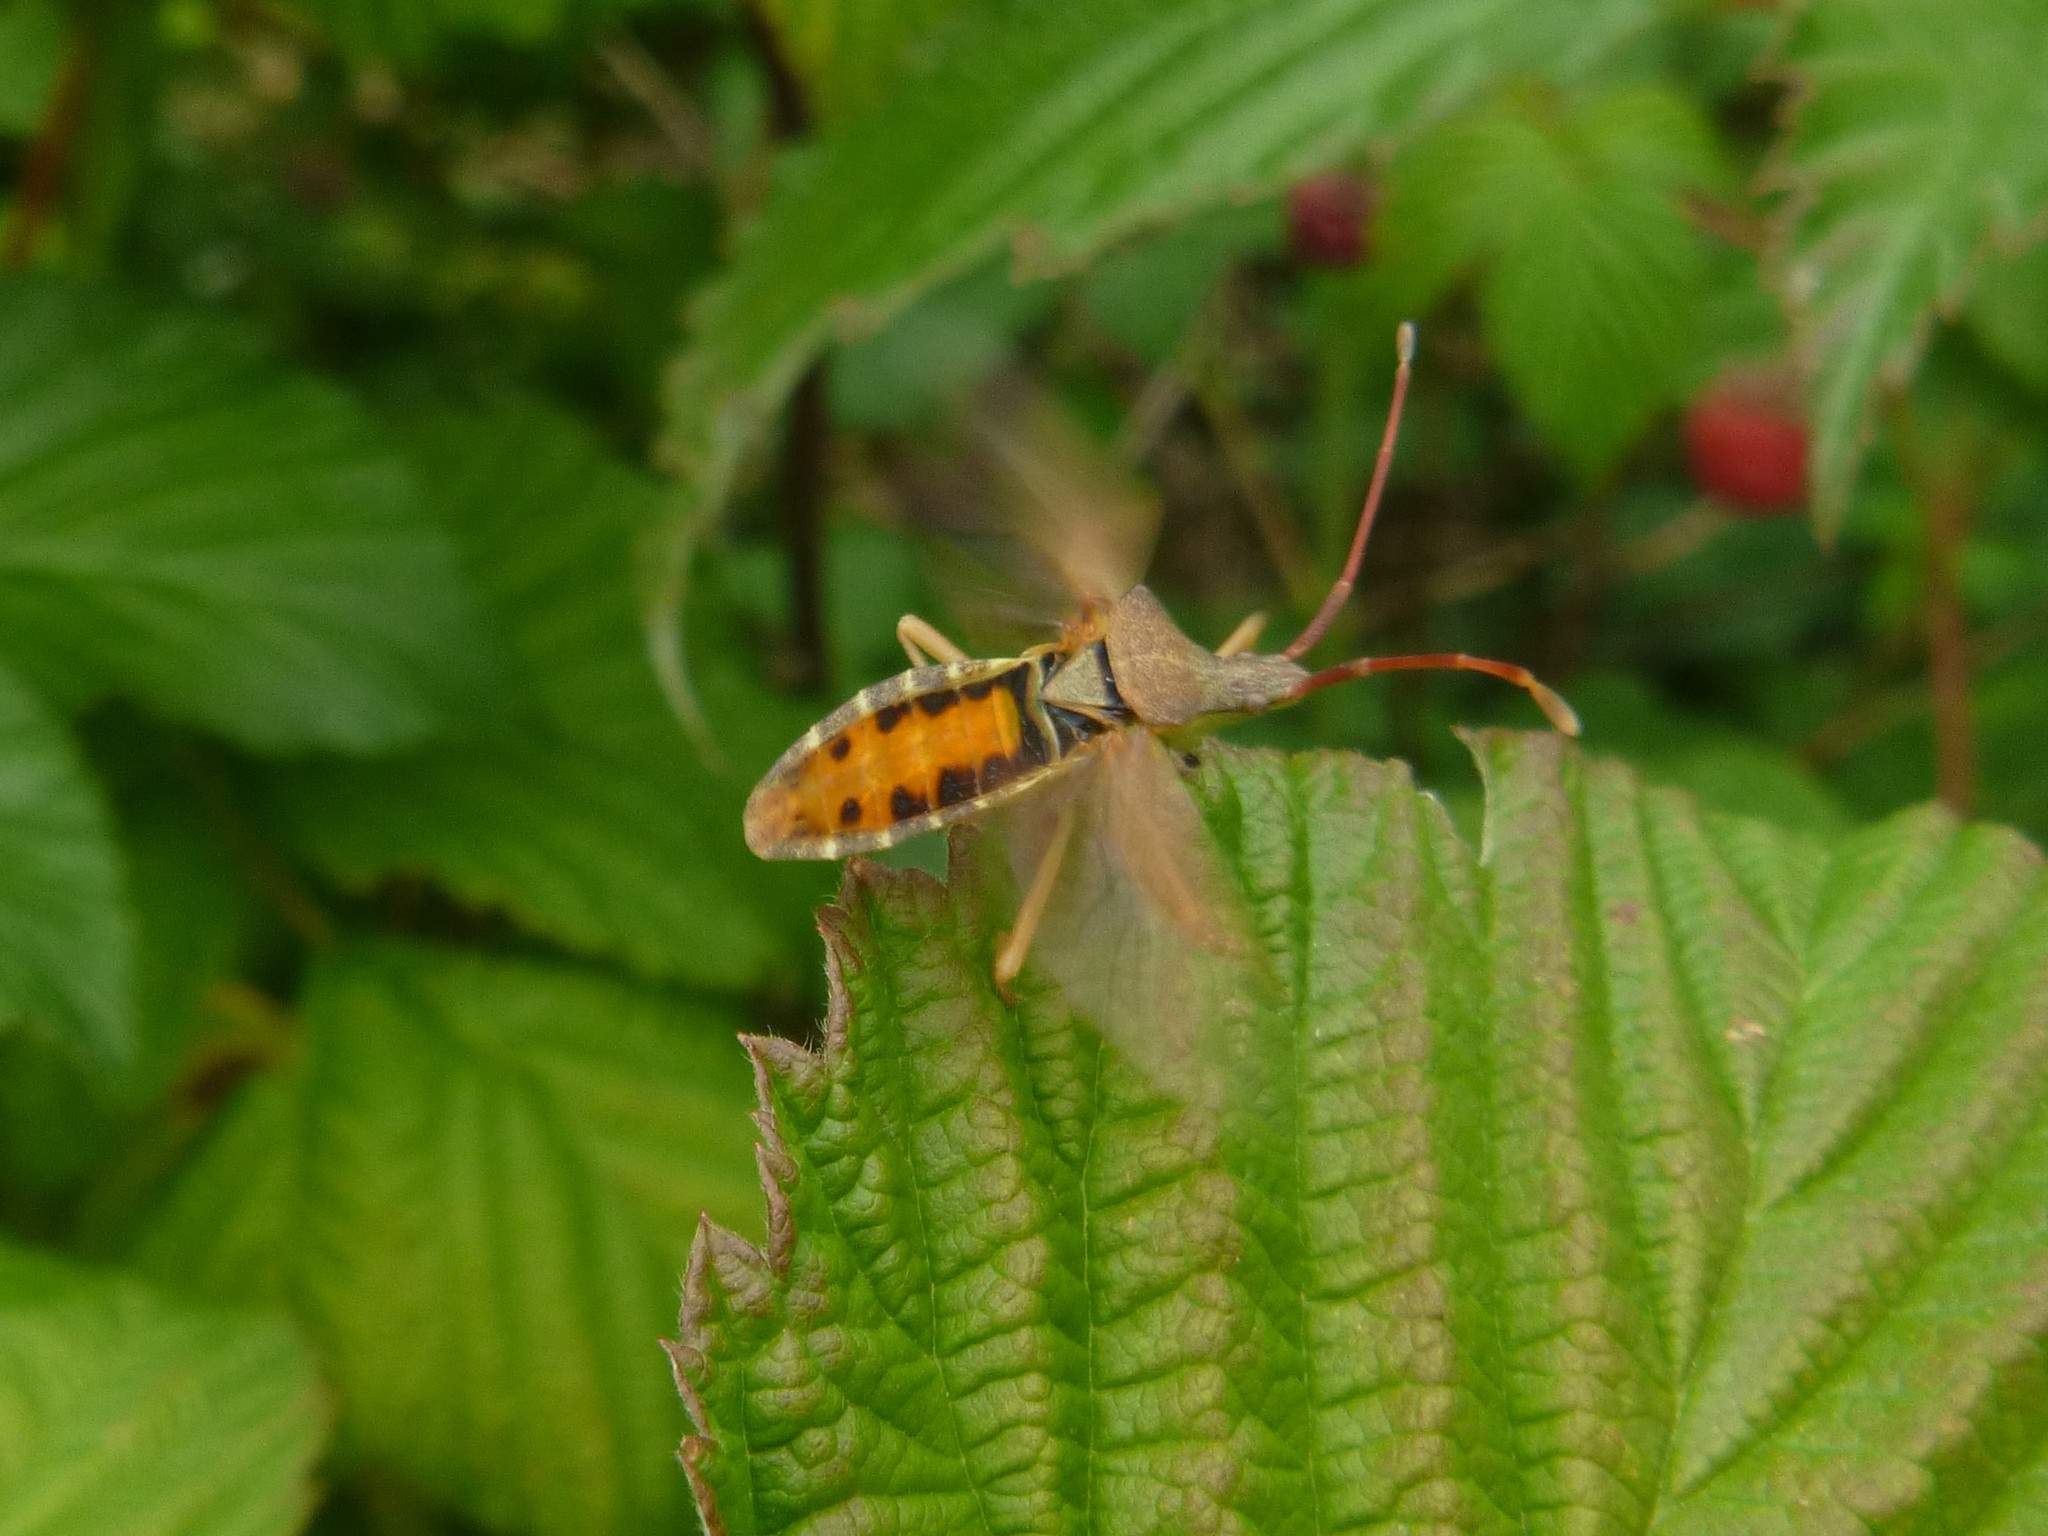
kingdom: Animalia
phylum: Arthropoda
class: Insecta
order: Hemiptera
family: Coreidae
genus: Gonocerus
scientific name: Gonocerus acuteangulatus
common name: Box bug
